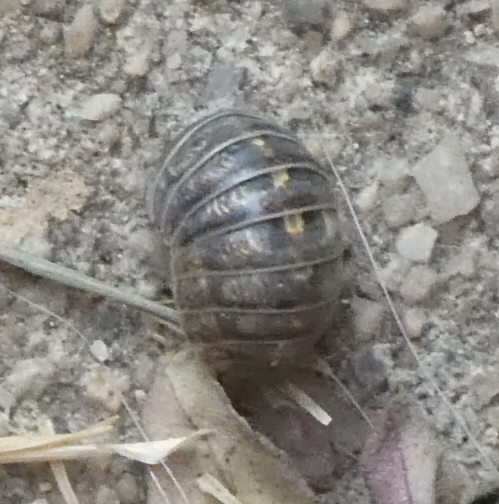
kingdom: Animalia
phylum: Arthropoda
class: Malacostraca
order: Isopoda
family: Armadillidiidae
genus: Armadillidium
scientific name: Armadillidium vulgare
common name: Common pill woodlouse
